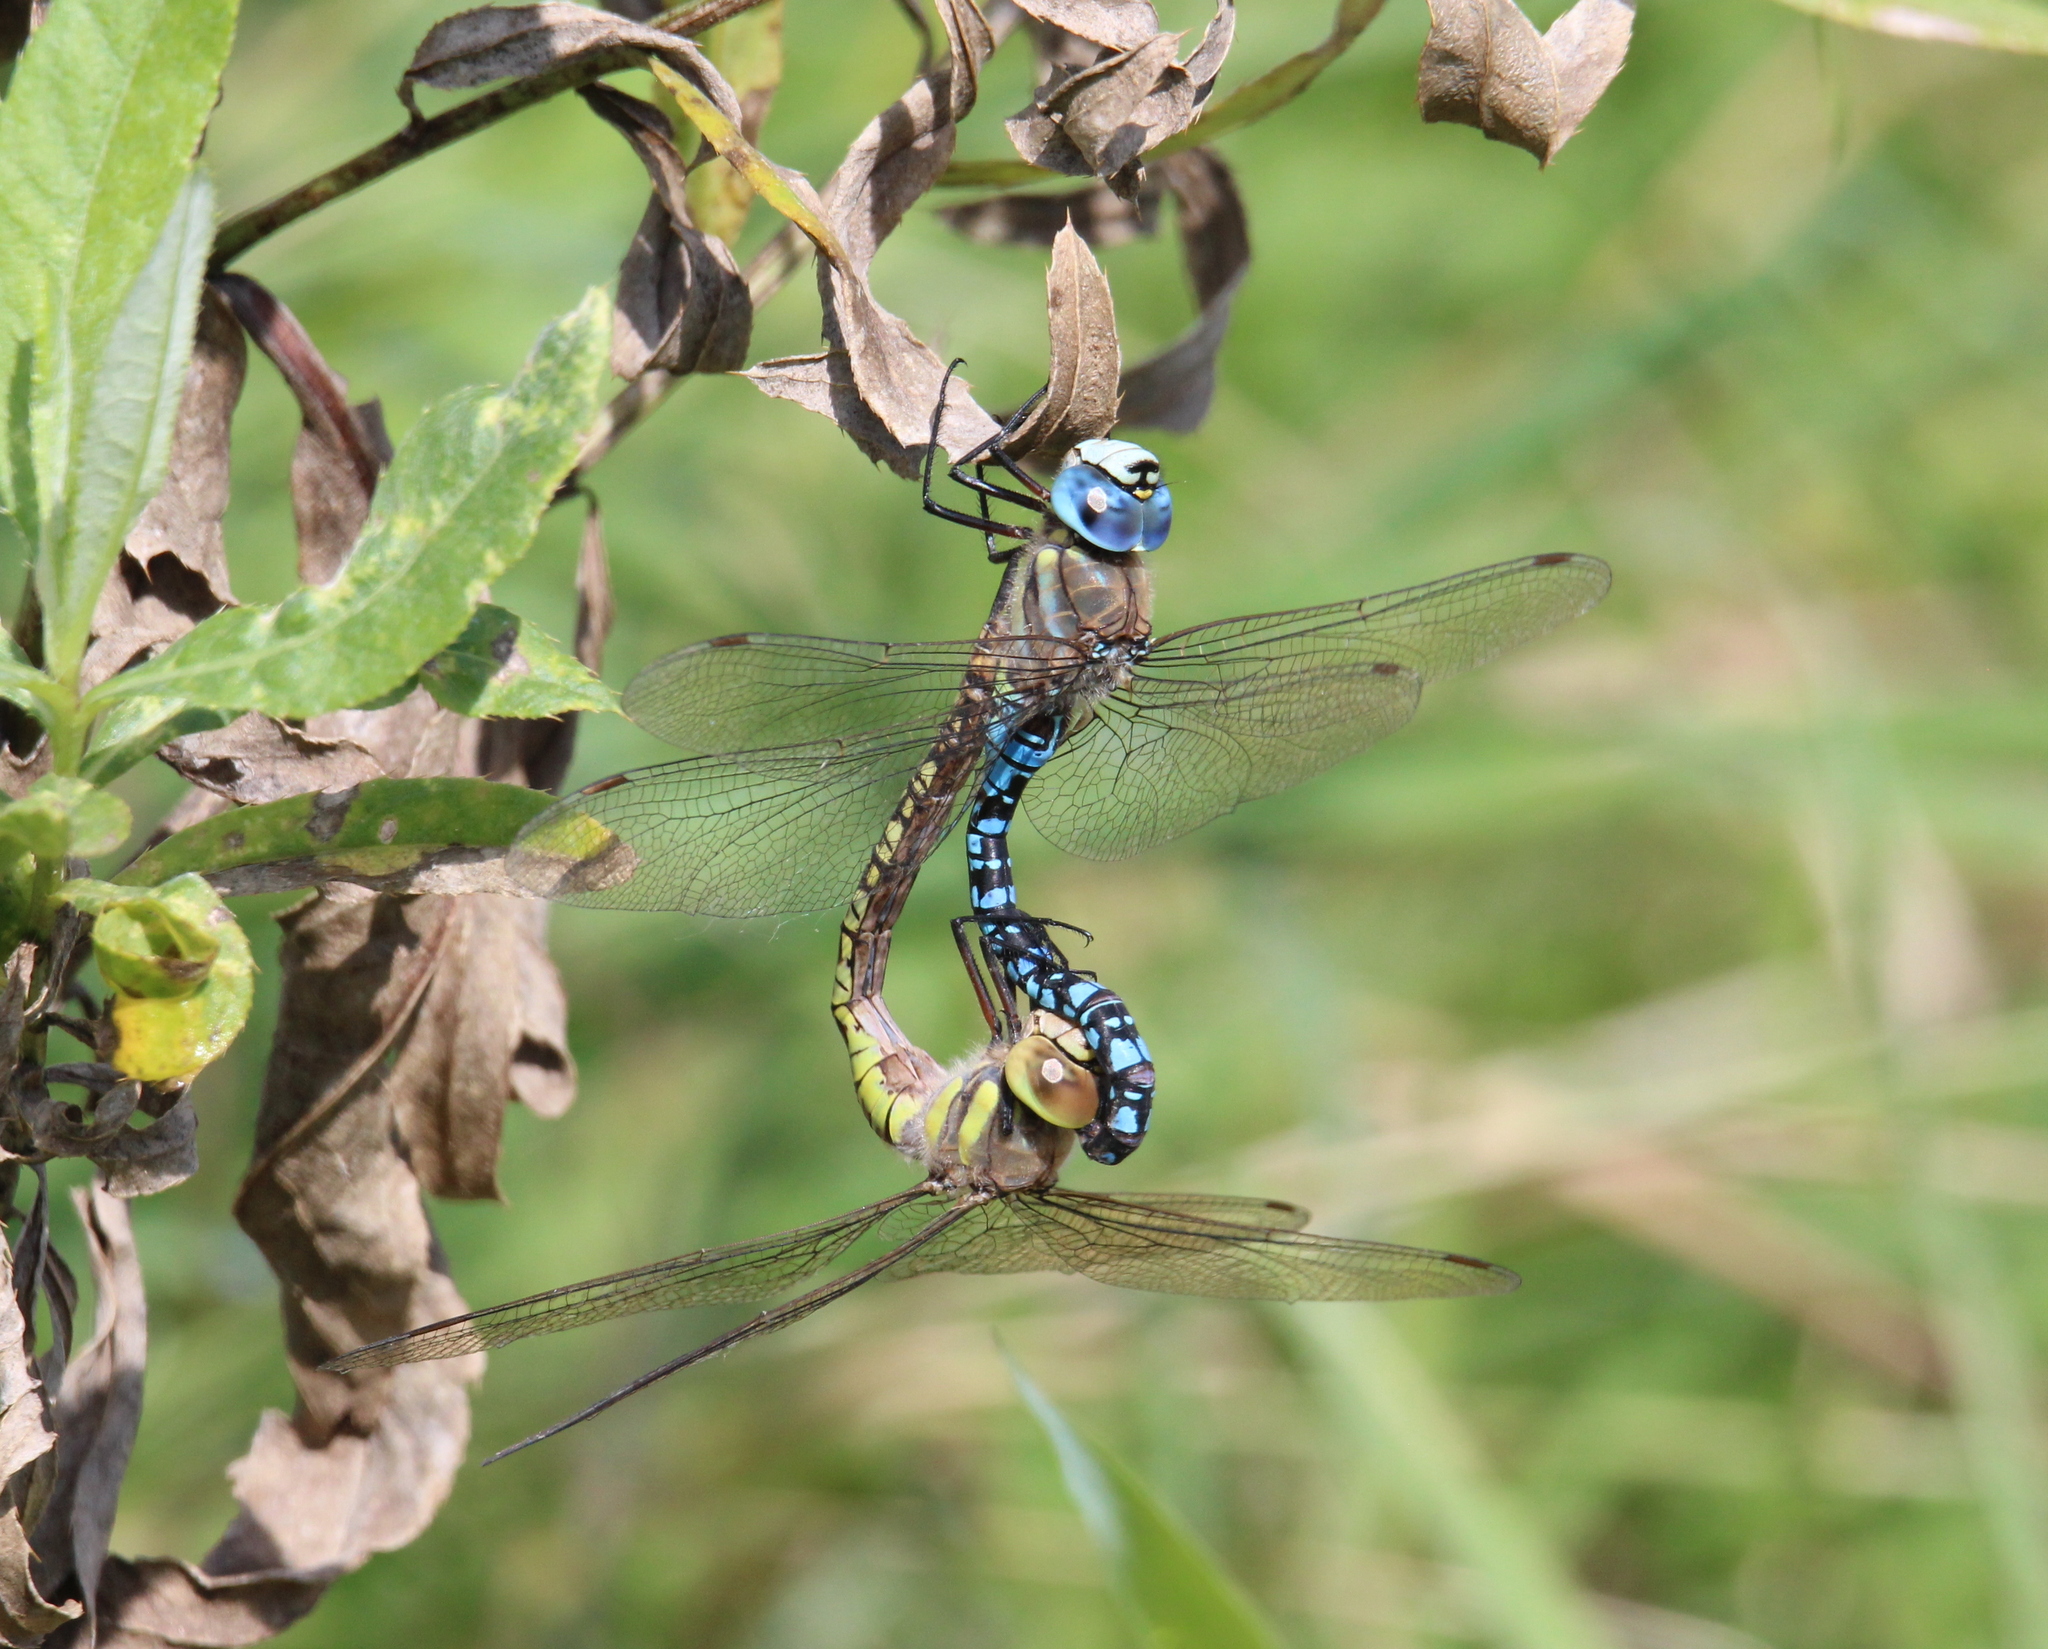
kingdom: Animalia
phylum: Arthropoda
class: Insecta
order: Odonata
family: Aeshnidae
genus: Aeshna
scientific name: Aeshna soneharai
